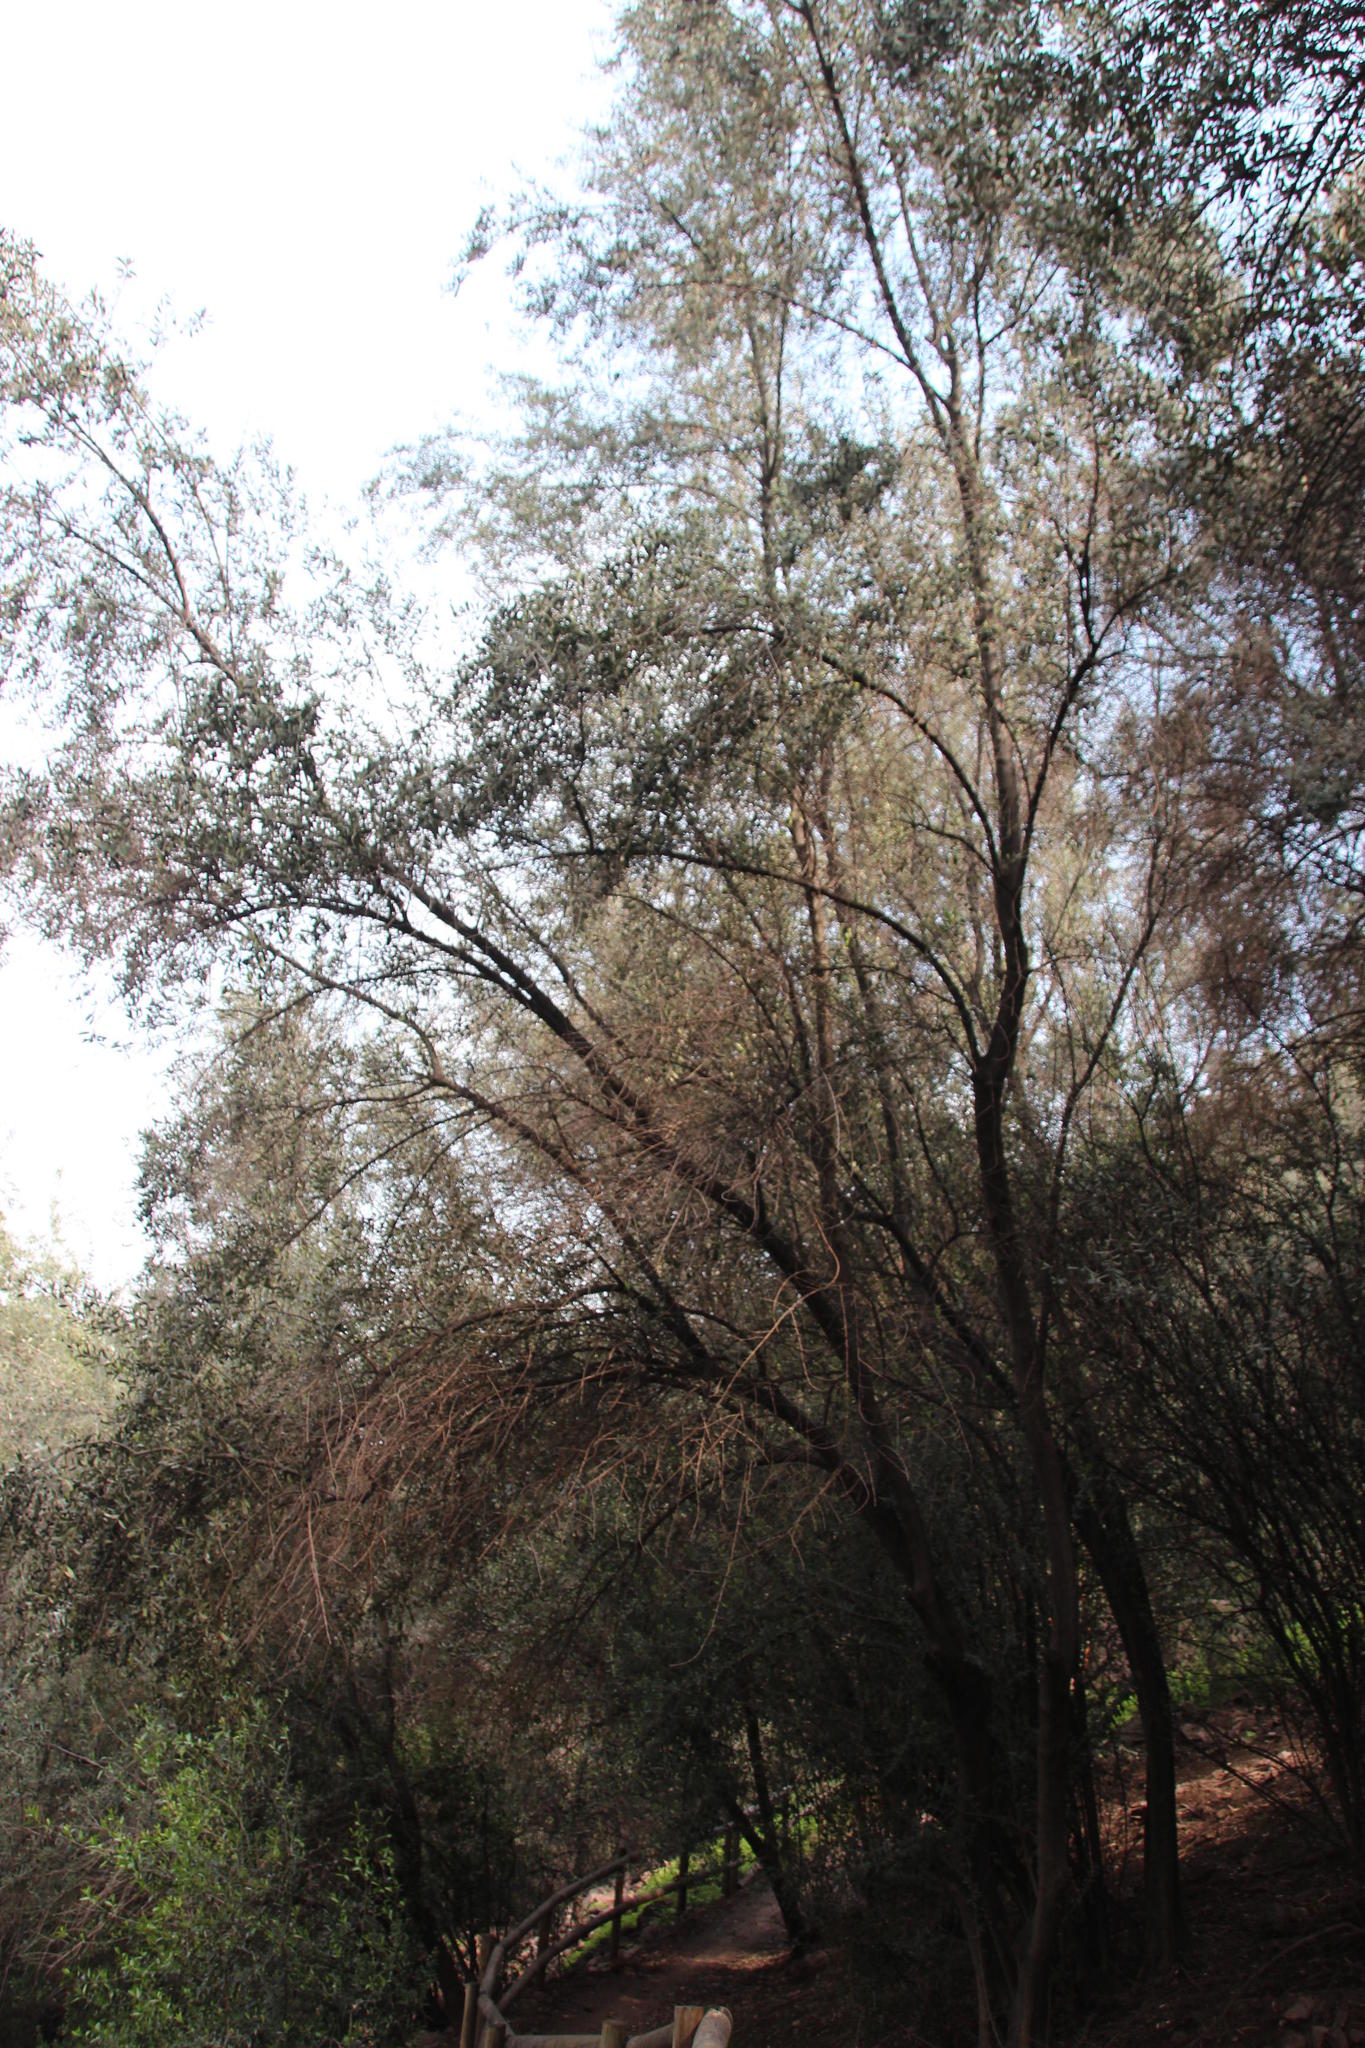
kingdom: Plantae
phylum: Tracheophyta
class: Magnoliopsida
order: Lamiales
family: Oleaceae
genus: Olea
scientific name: Olea europaea
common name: Olive
